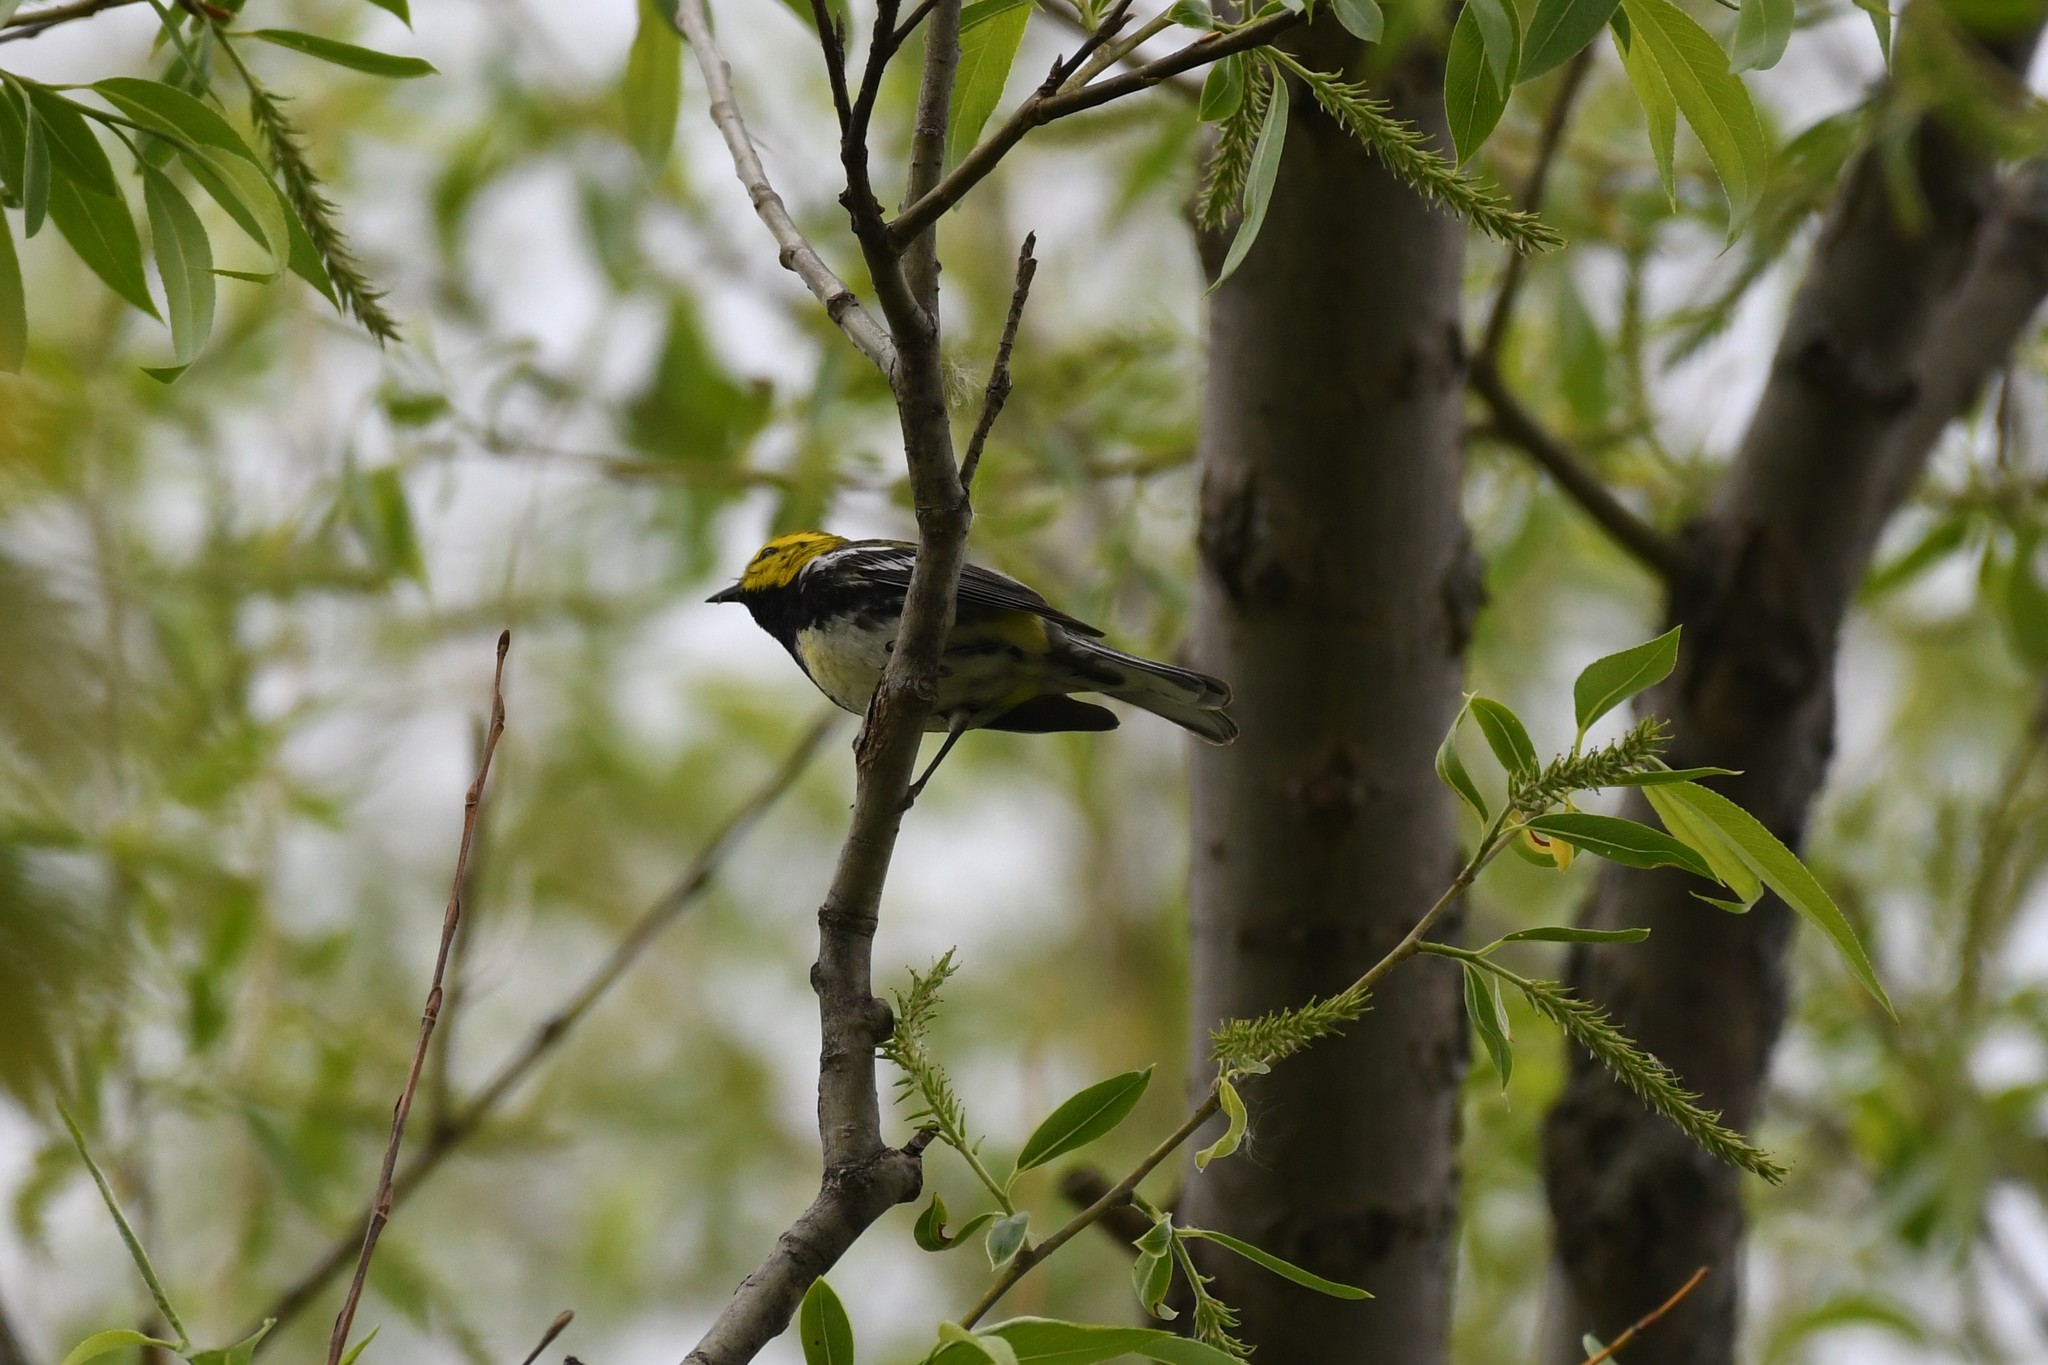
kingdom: Animalia
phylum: Chordata
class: Aves
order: Passeriformes
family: Parulidae
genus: Setophaga
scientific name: Setophaga virens
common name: Black-throated green warbler
